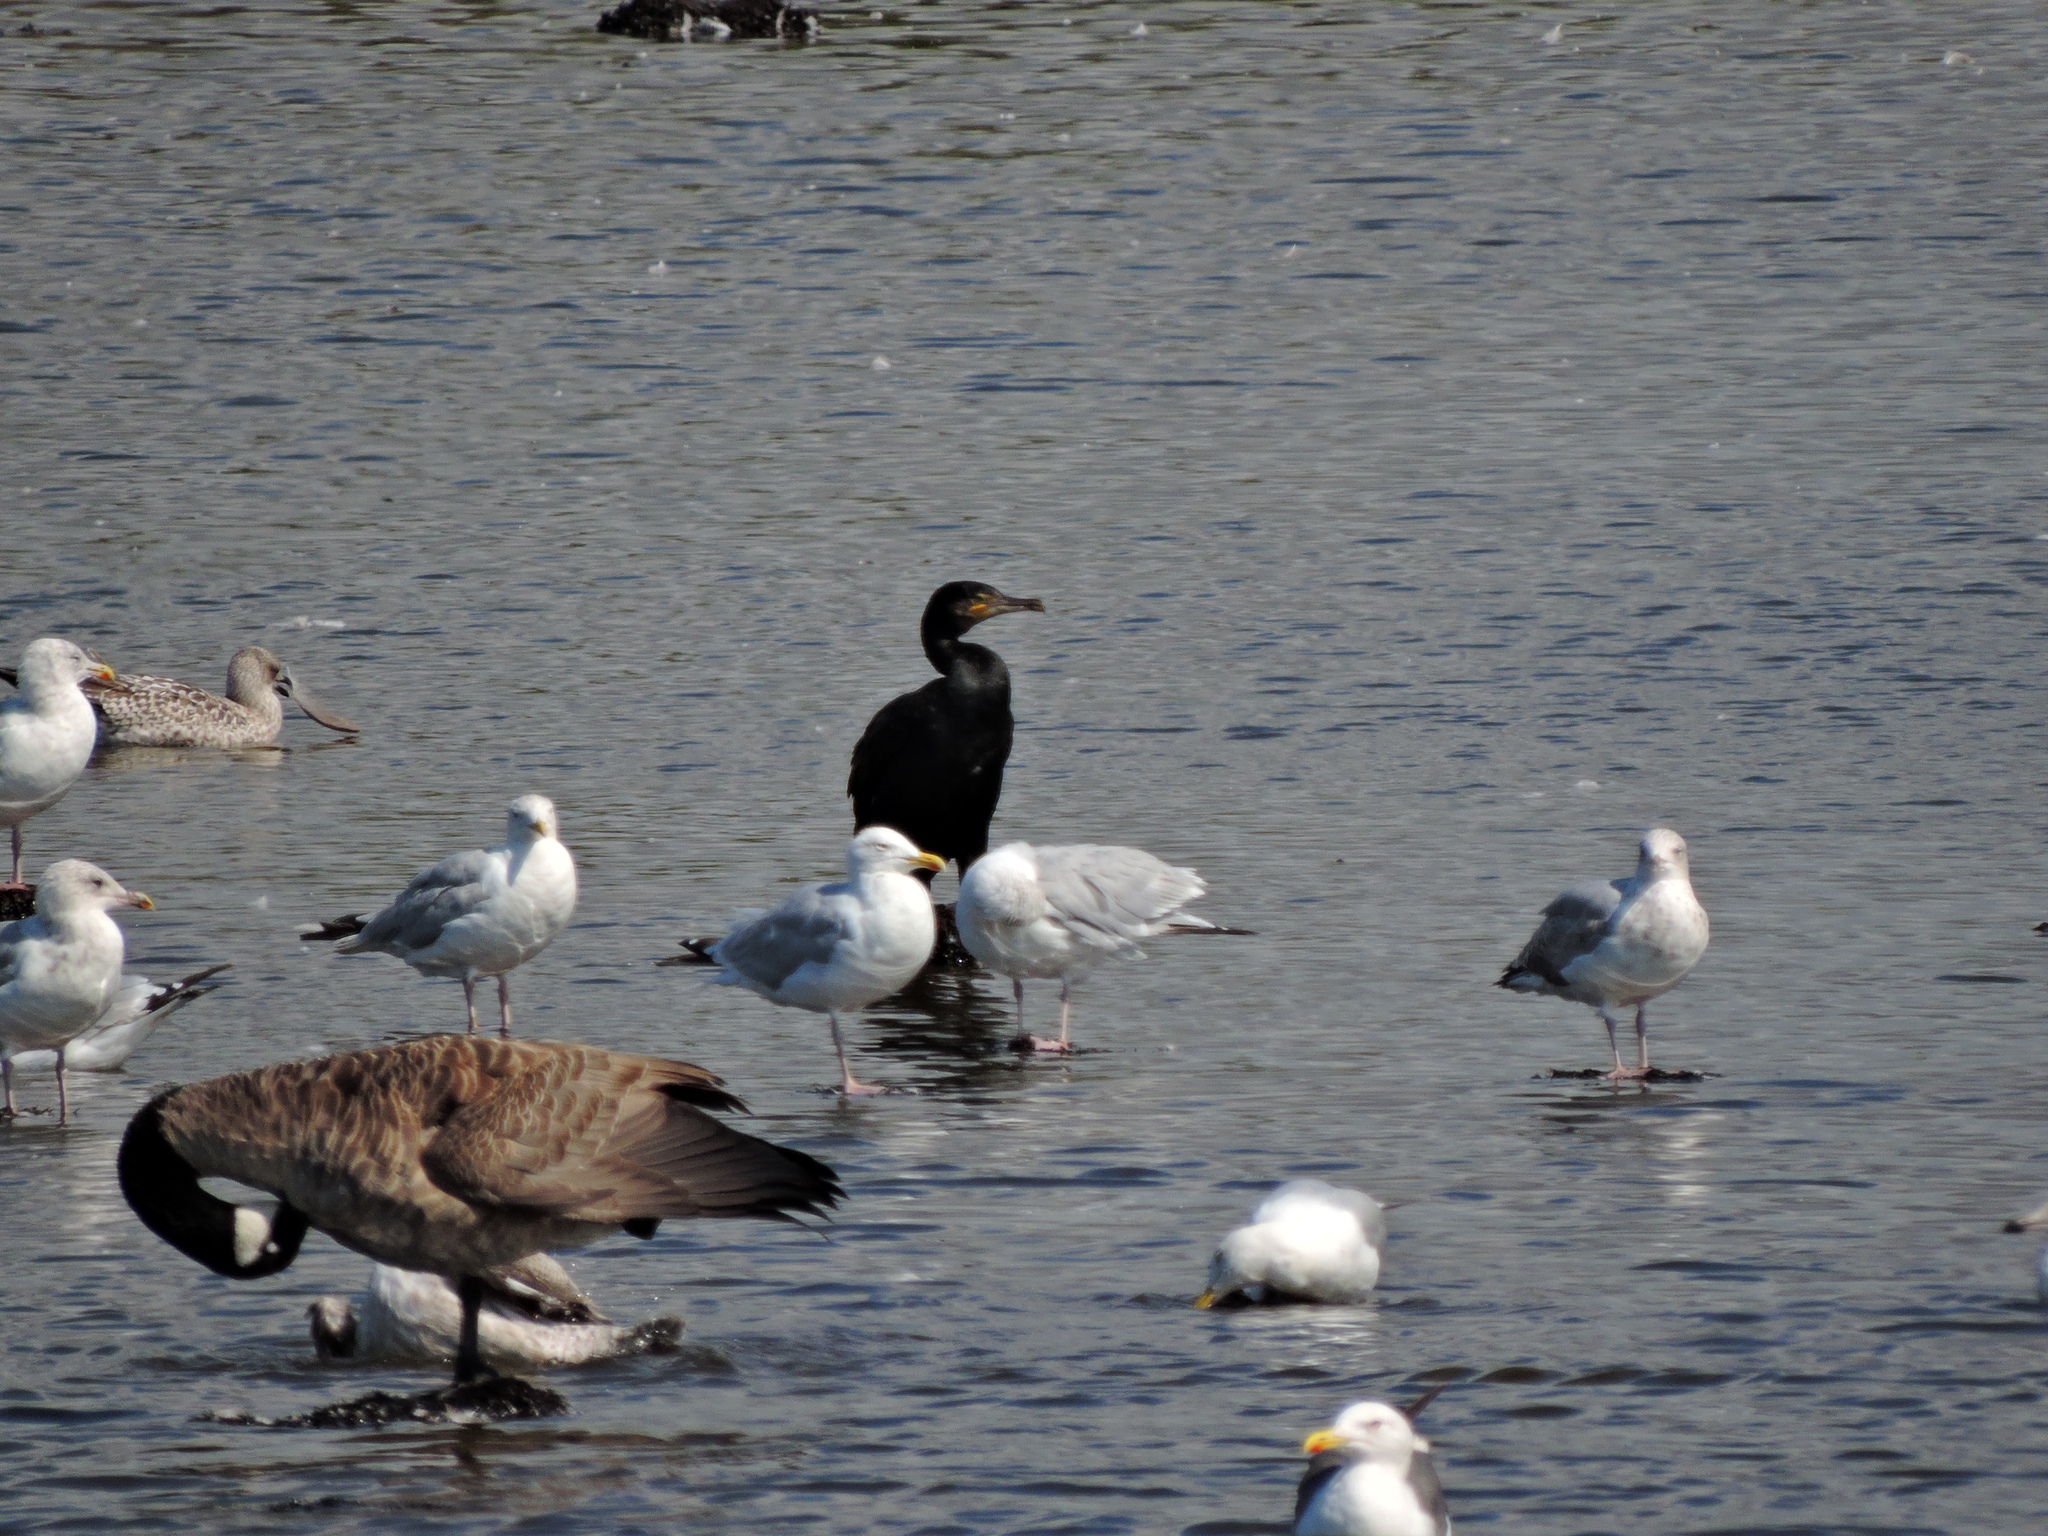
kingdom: Animalia
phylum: Chordata
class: Aves
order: Suliformes
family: Phalacrocoracidae
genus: Phalacrocorax
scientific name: Phalacrocorax carbo
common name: Great cormorant
